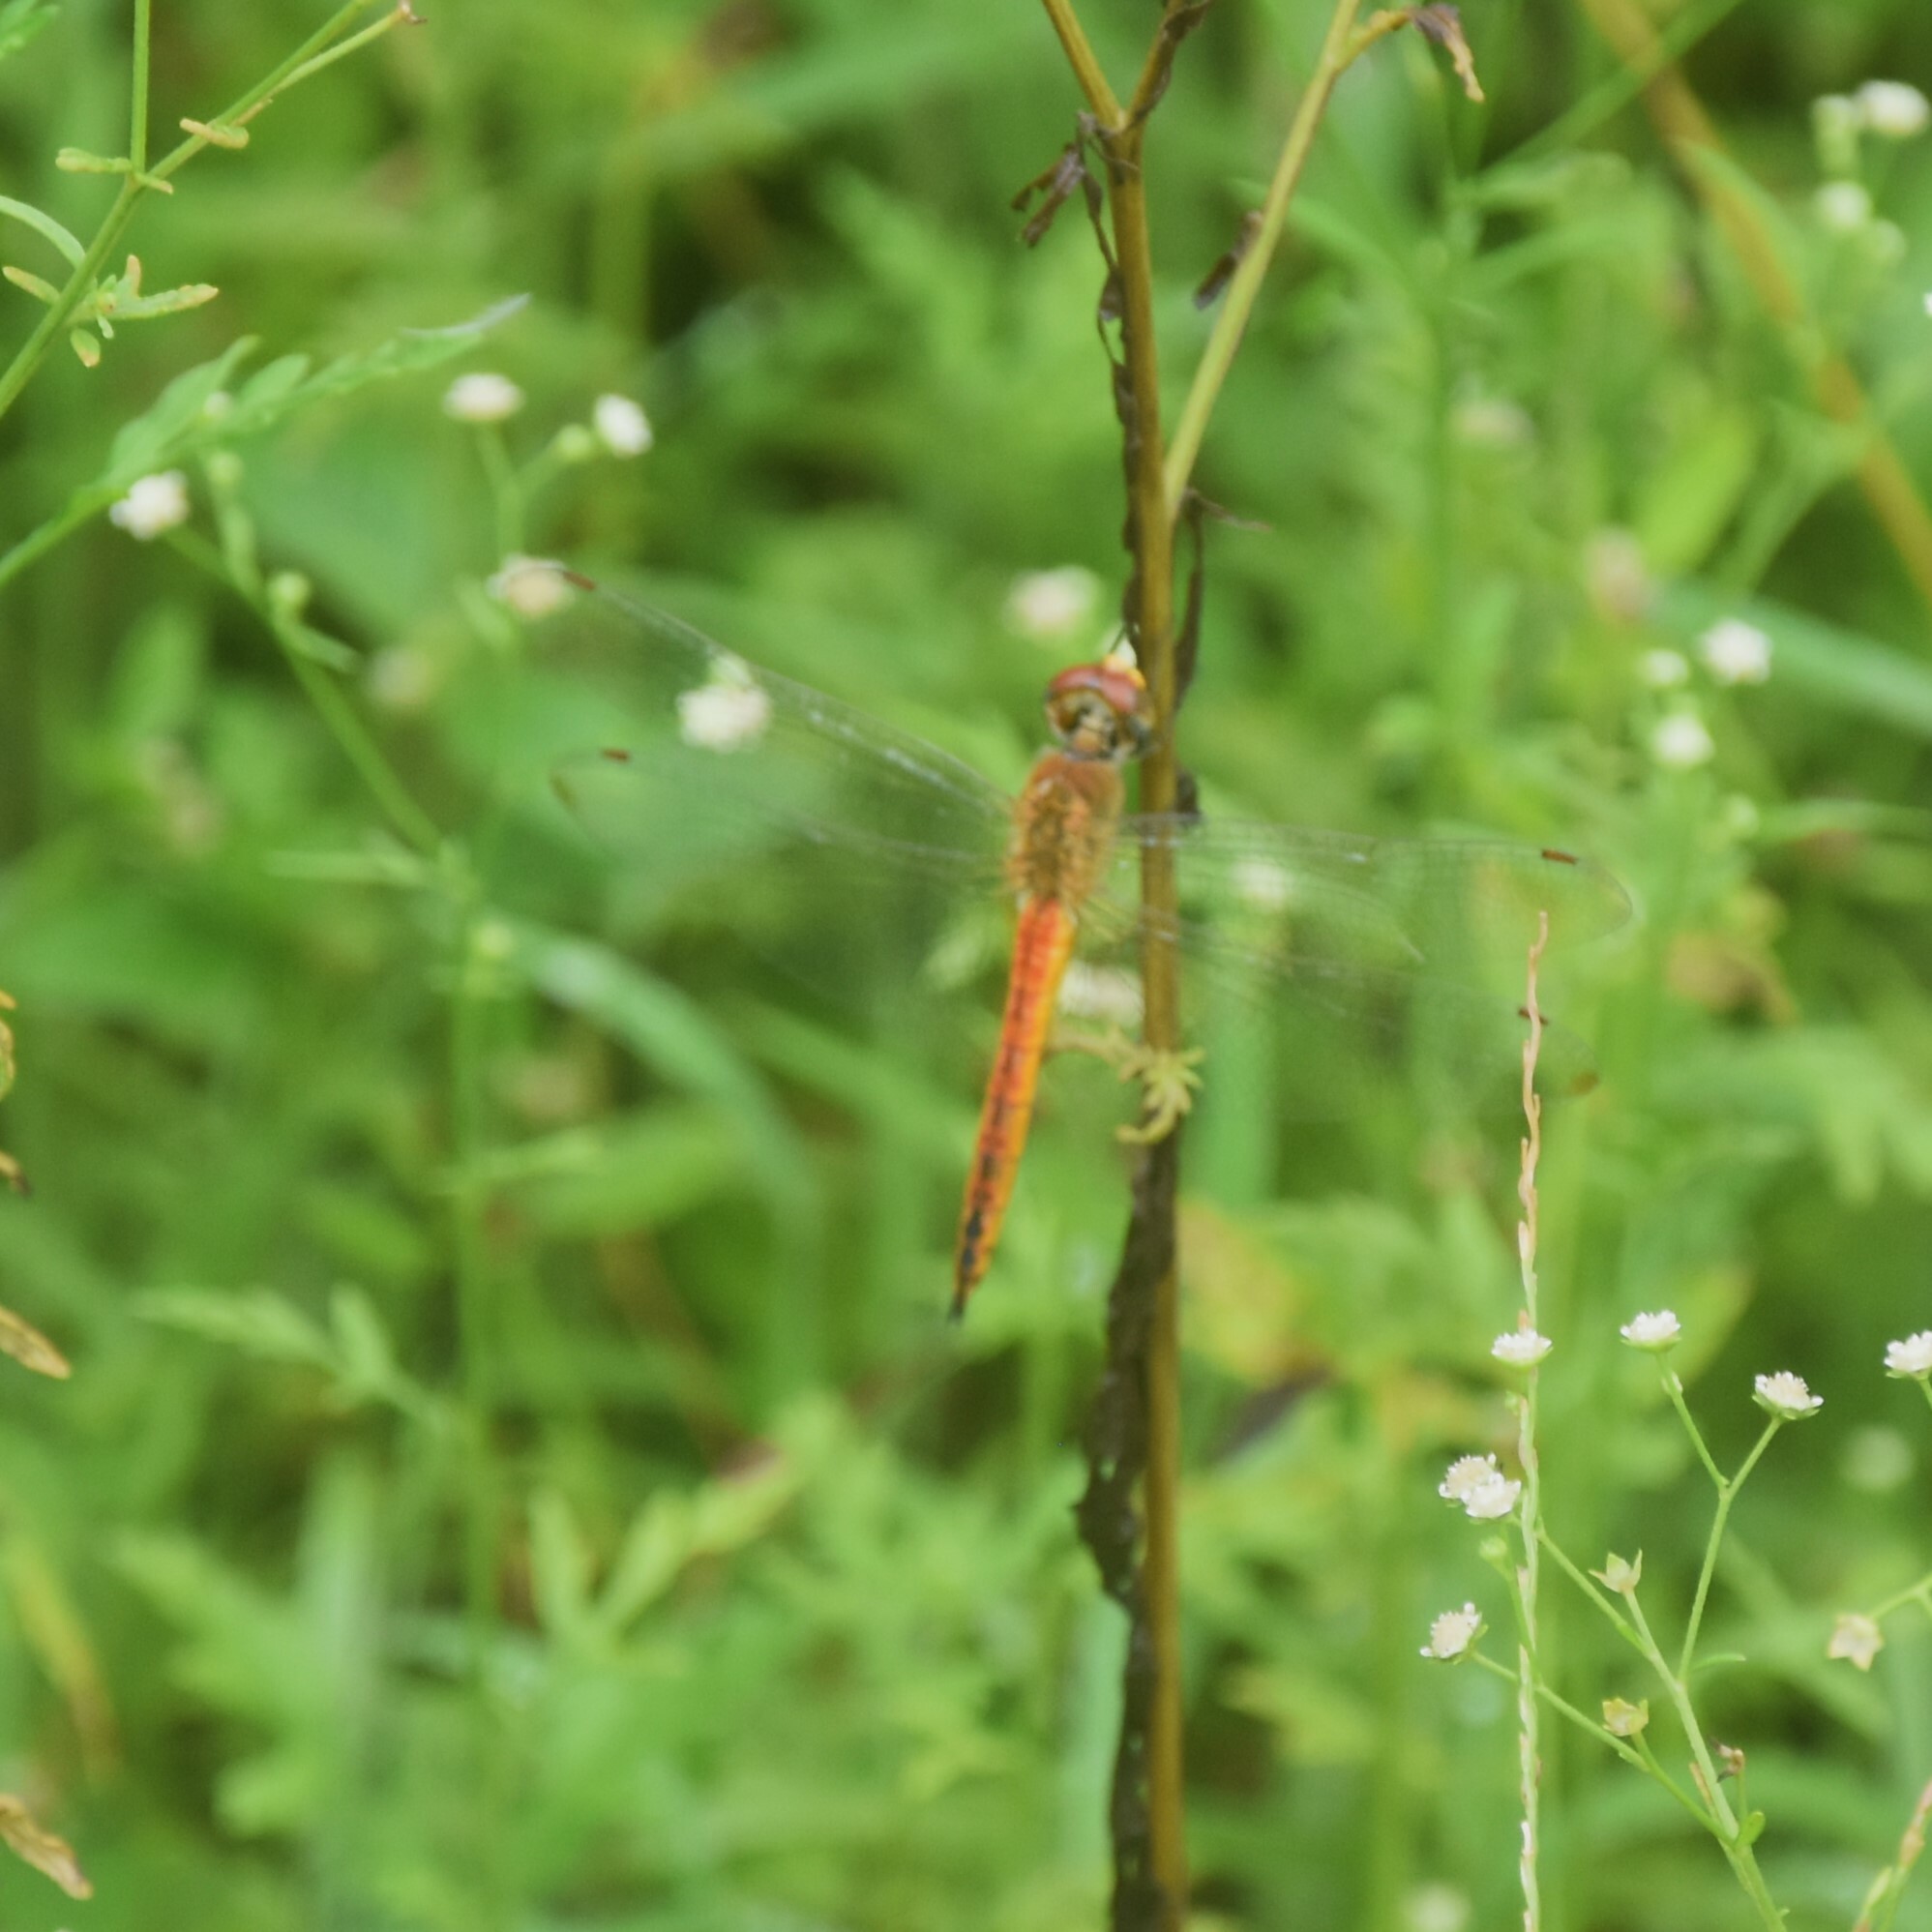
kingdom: Animalia
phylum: Arthropoda
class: Insecta
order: Odonata
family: Libellulidae
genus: Pantala
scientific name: Pantala flavescens
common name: Wandering glider
